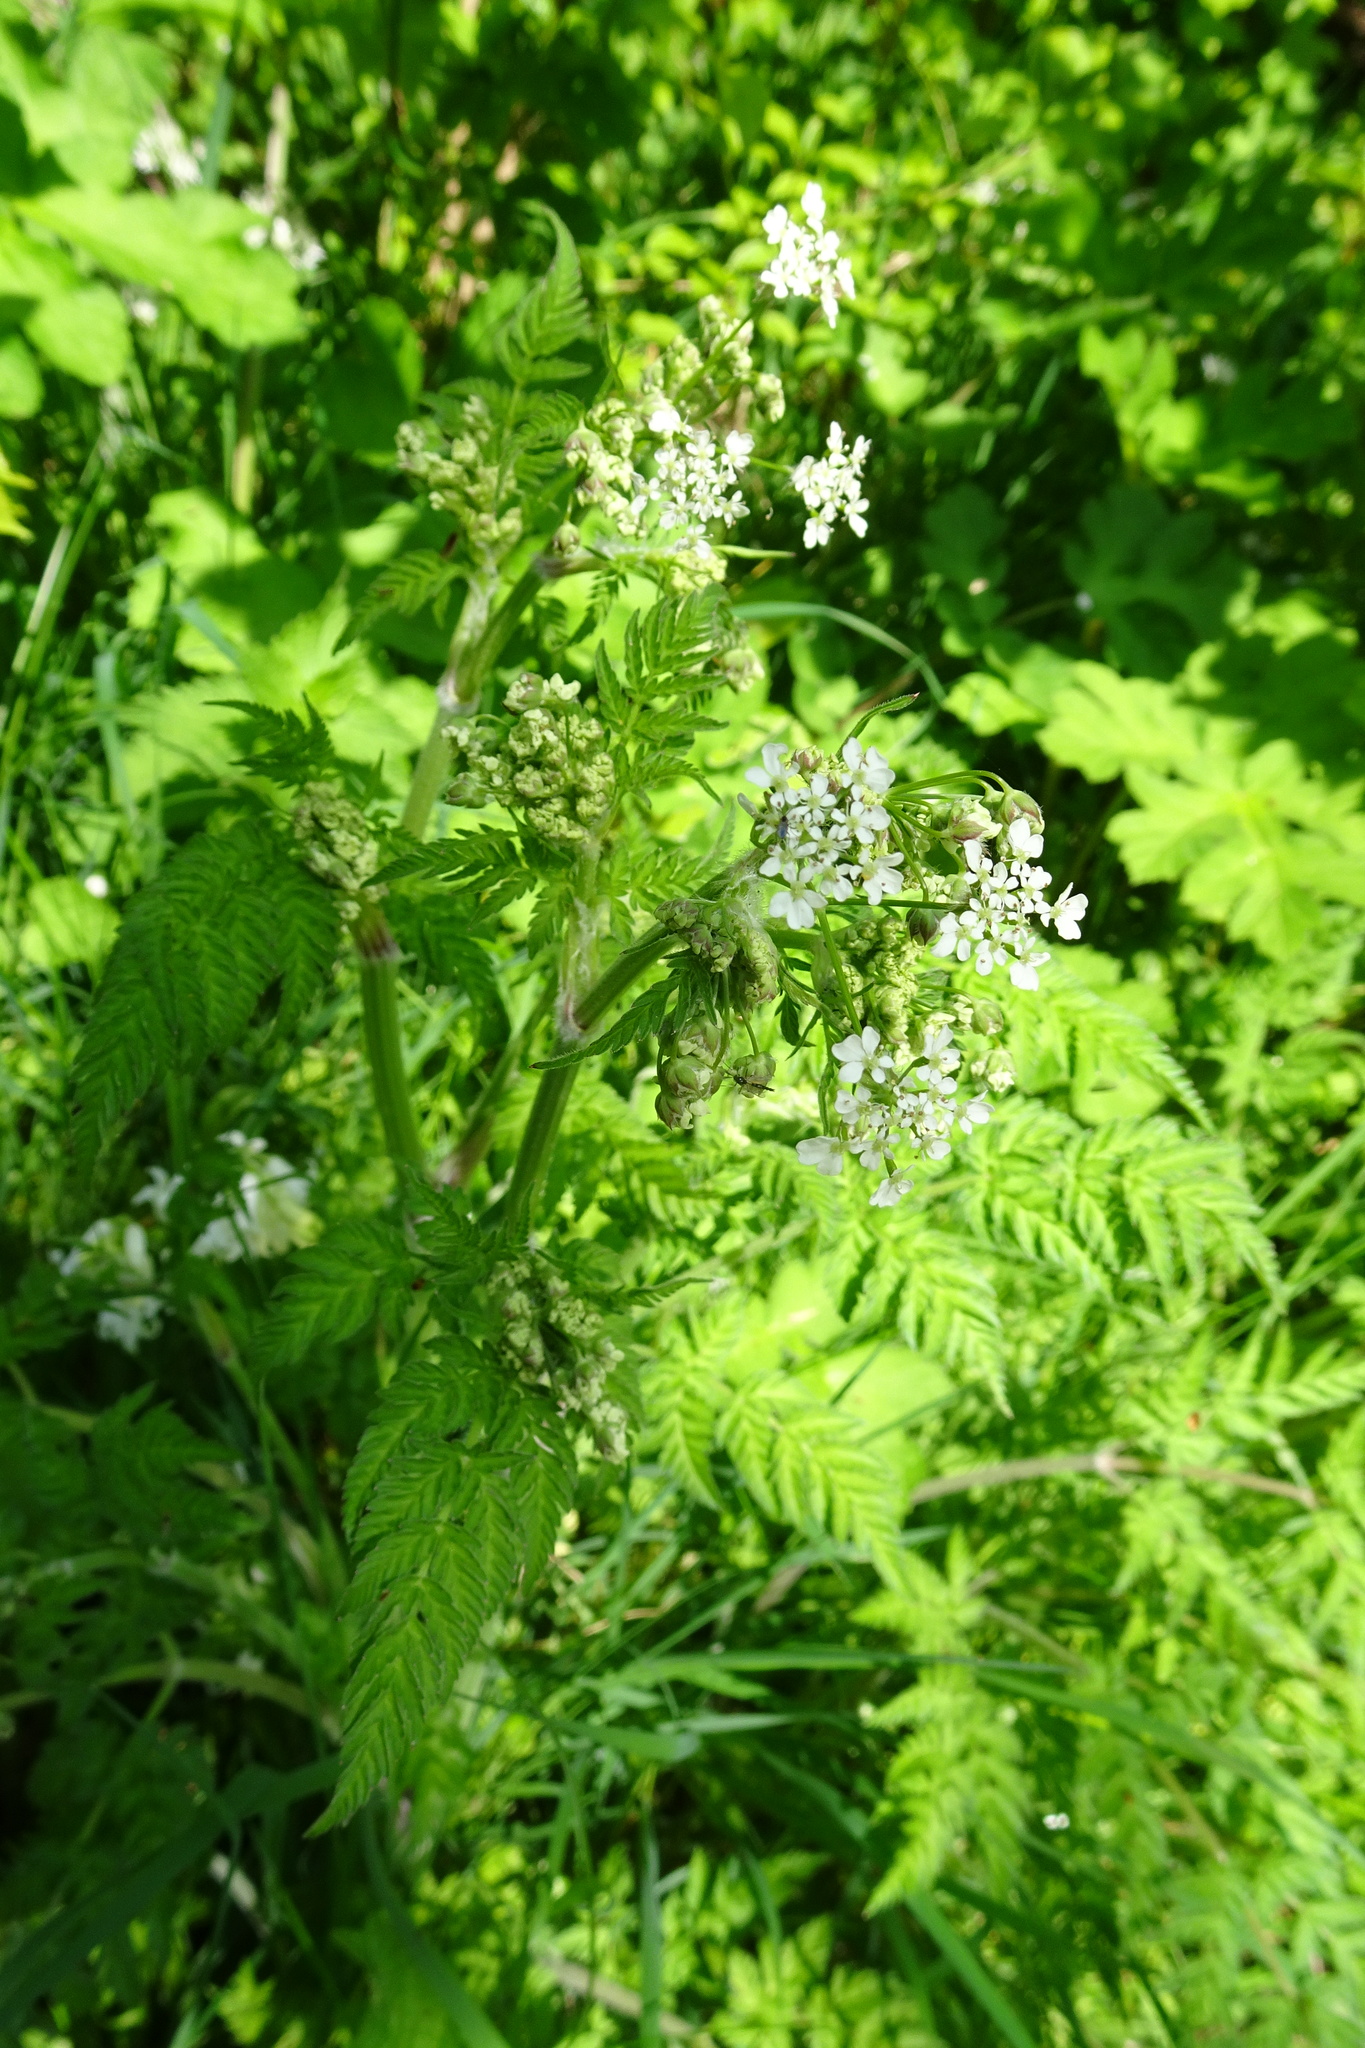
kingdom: Plantae
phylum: Tracheophyta
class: Magnoliopsida
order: Apiales
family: Apiaceae
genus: Anthriscus
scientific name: Anthriscus sylvestris
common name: Cow parsley
